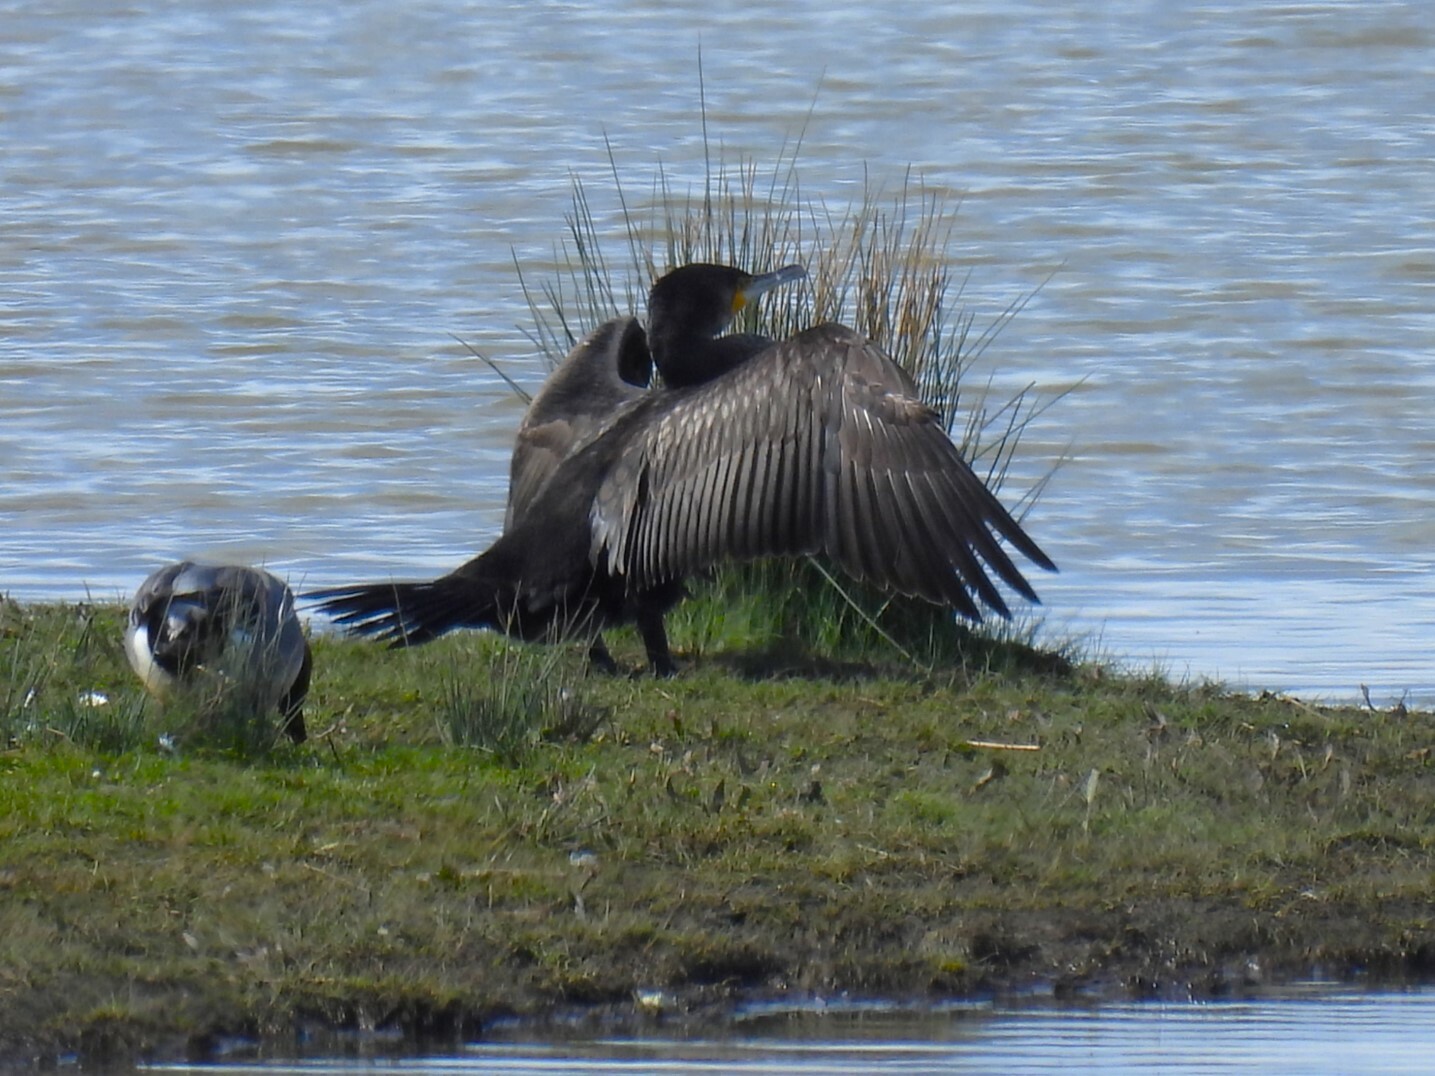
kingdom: Animalia
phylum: Chordata
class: Aves
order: Suliformes
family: Phalacrocoracidae
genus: Phalacrocorax
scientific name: Phalacrocorax carbo
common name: Great cormorant
